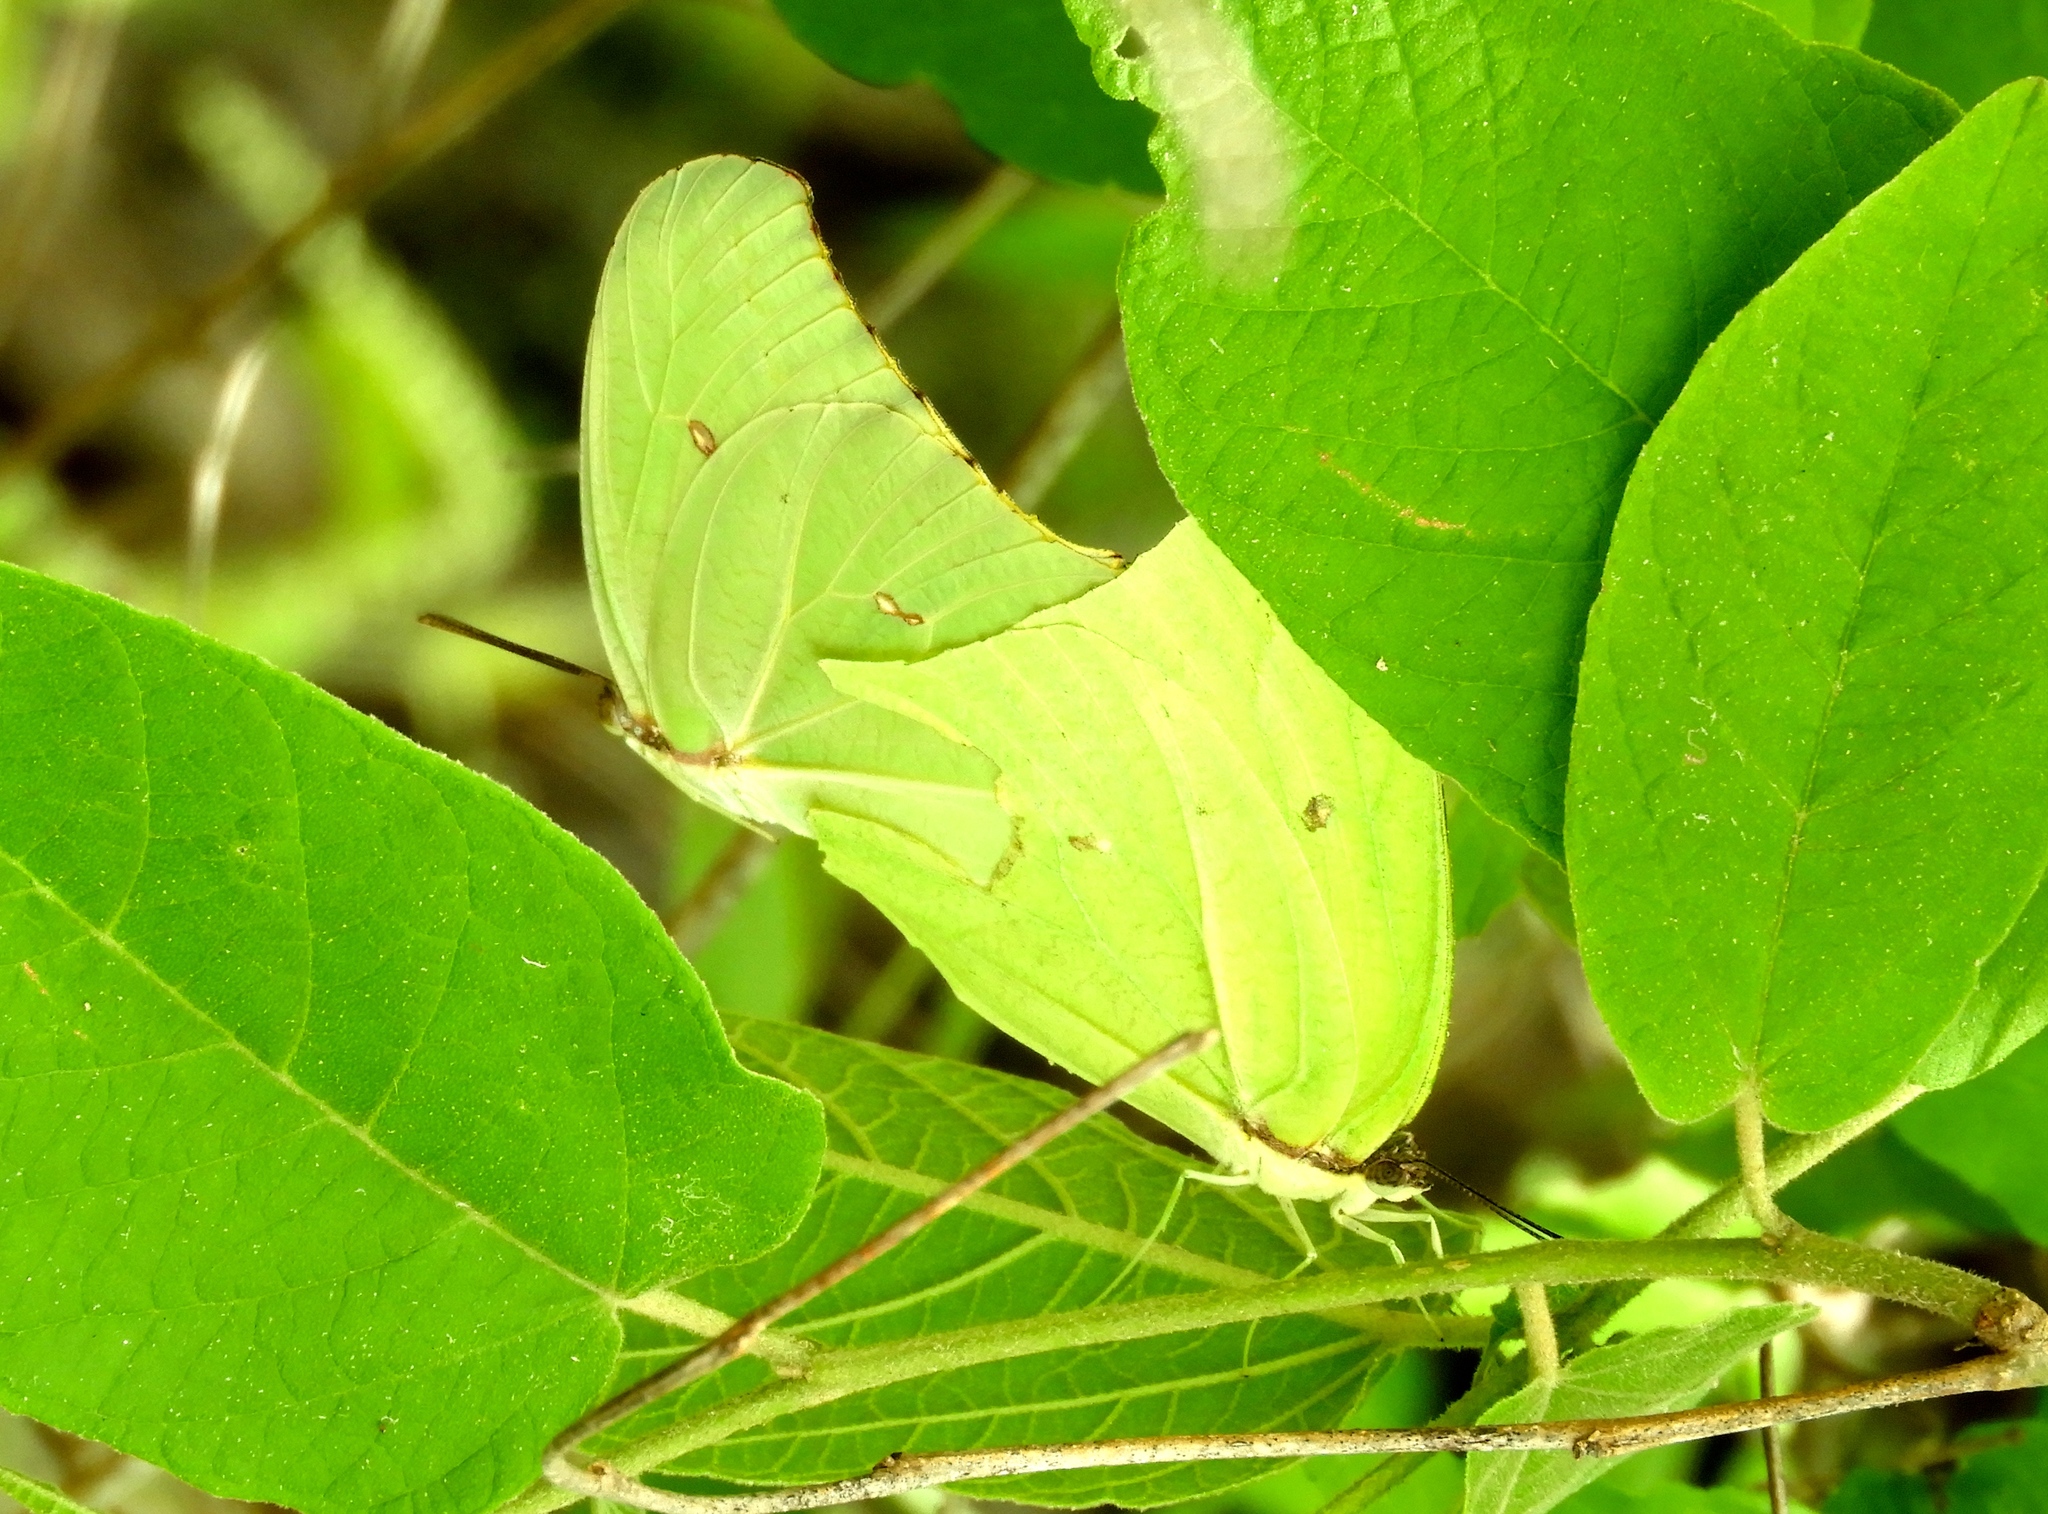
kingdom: Animalia
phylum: Arthropoda
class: Insecta
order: Lepidoptera
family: Pieridae
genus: Anteos
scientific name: Anteos maerula
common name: Angled sulphur
